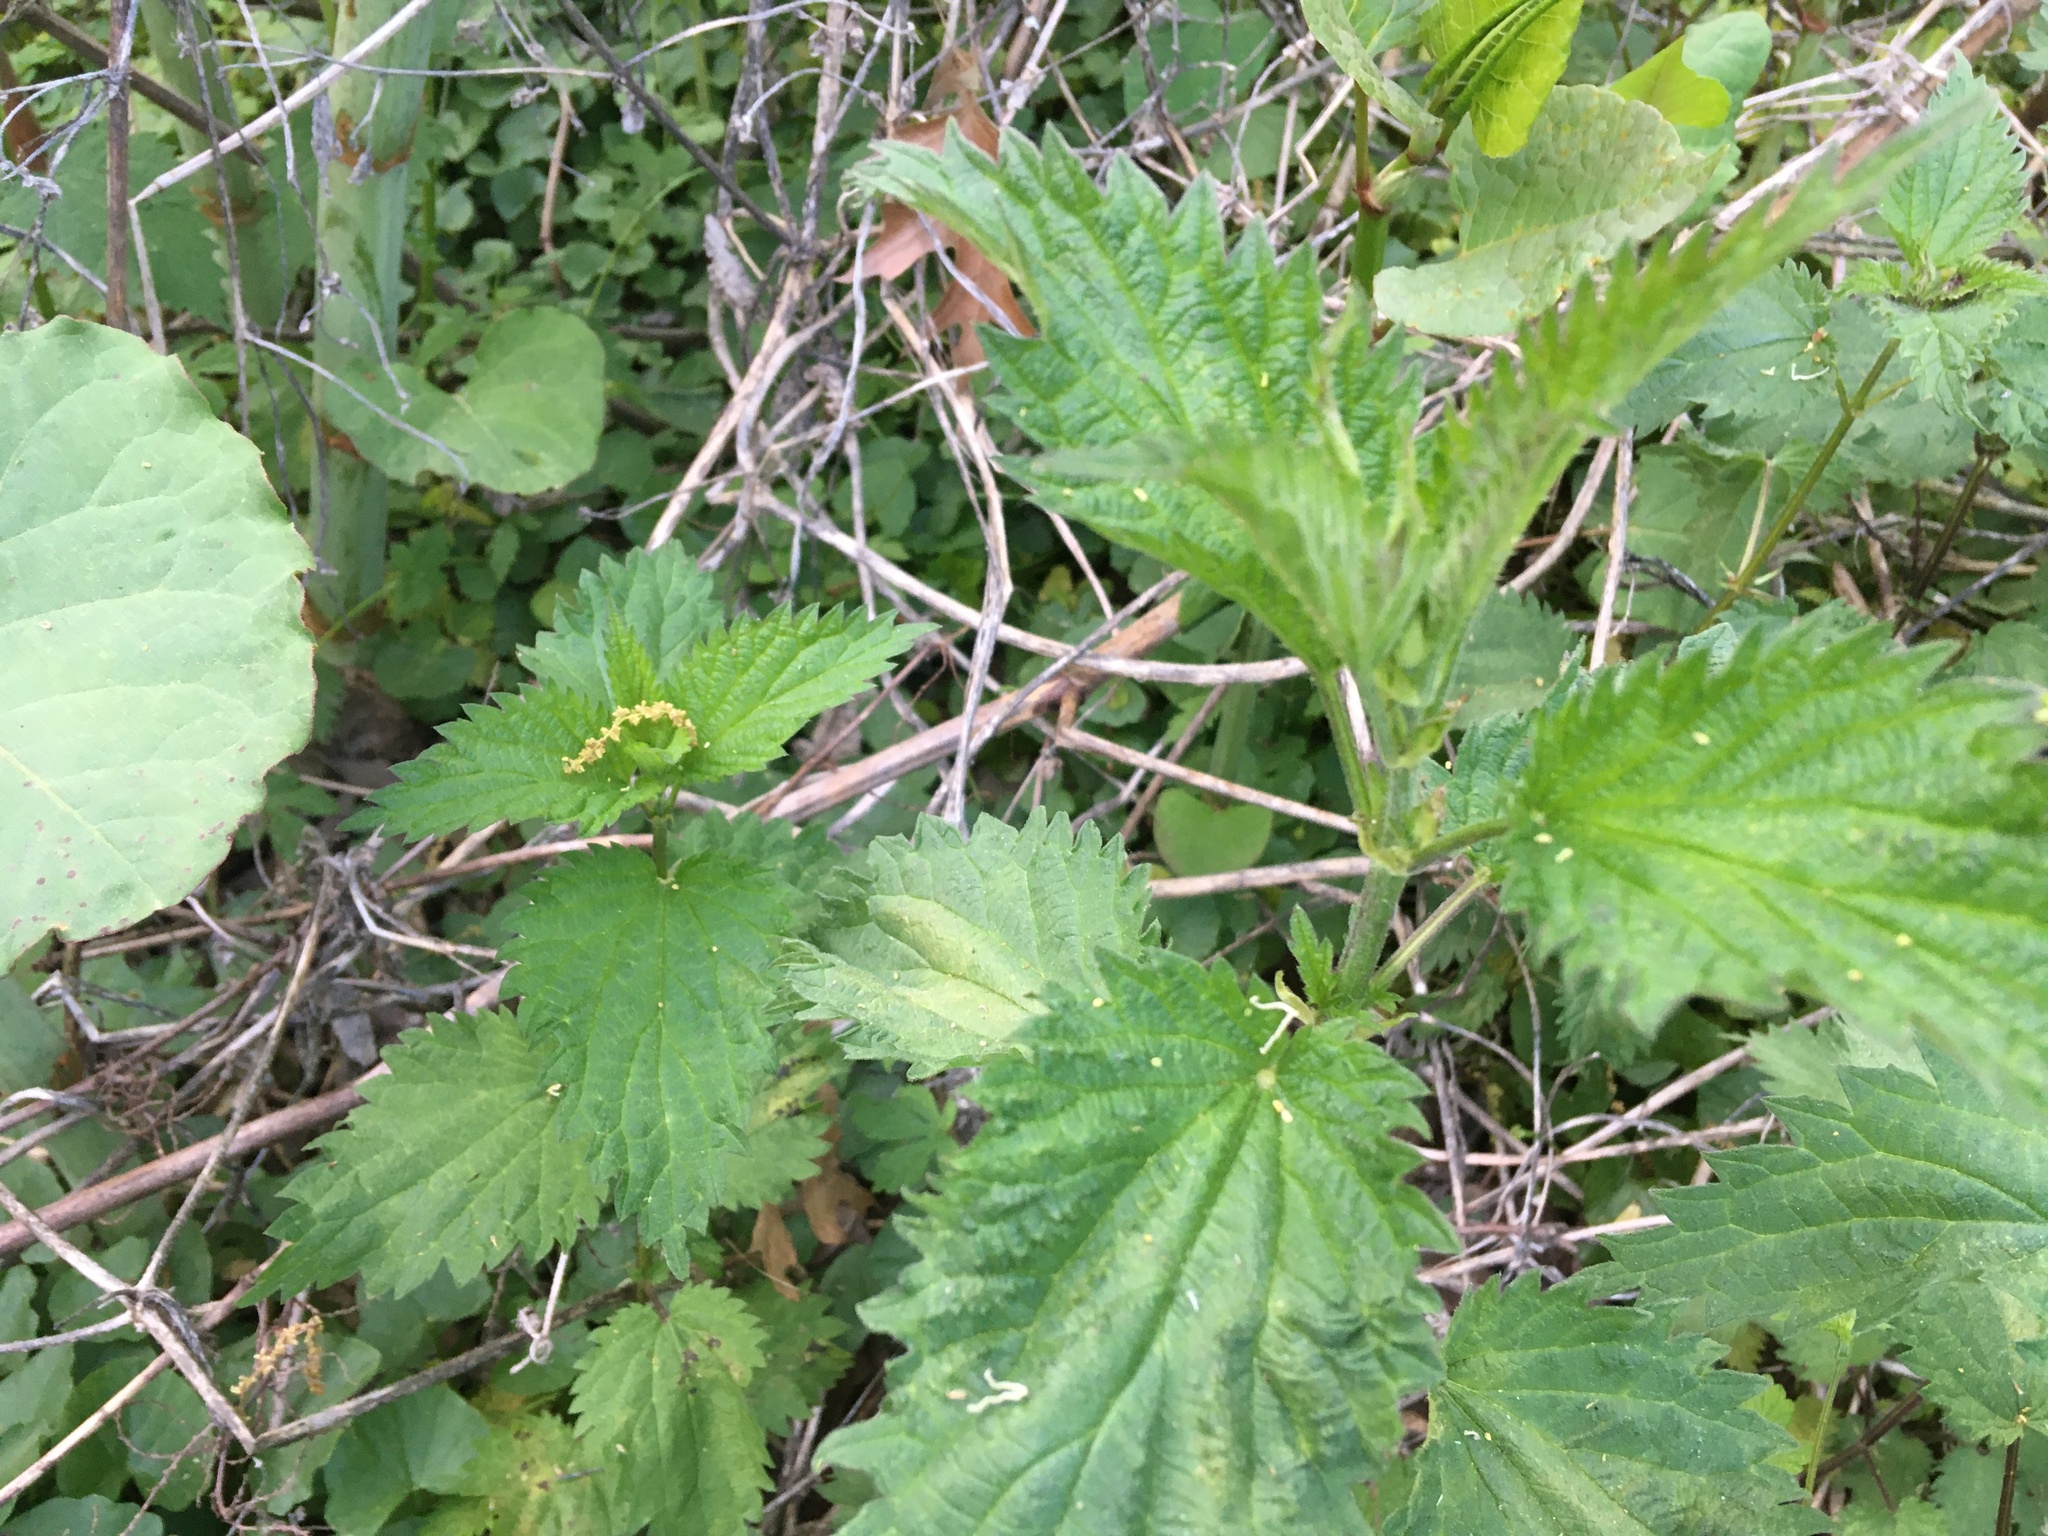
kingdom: Plantae
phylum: Tracheophyta
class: Magnoliopsida
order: Rosales
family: Urticaceae
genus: Urtica
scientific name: Urtica dioica
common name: Common nettle
